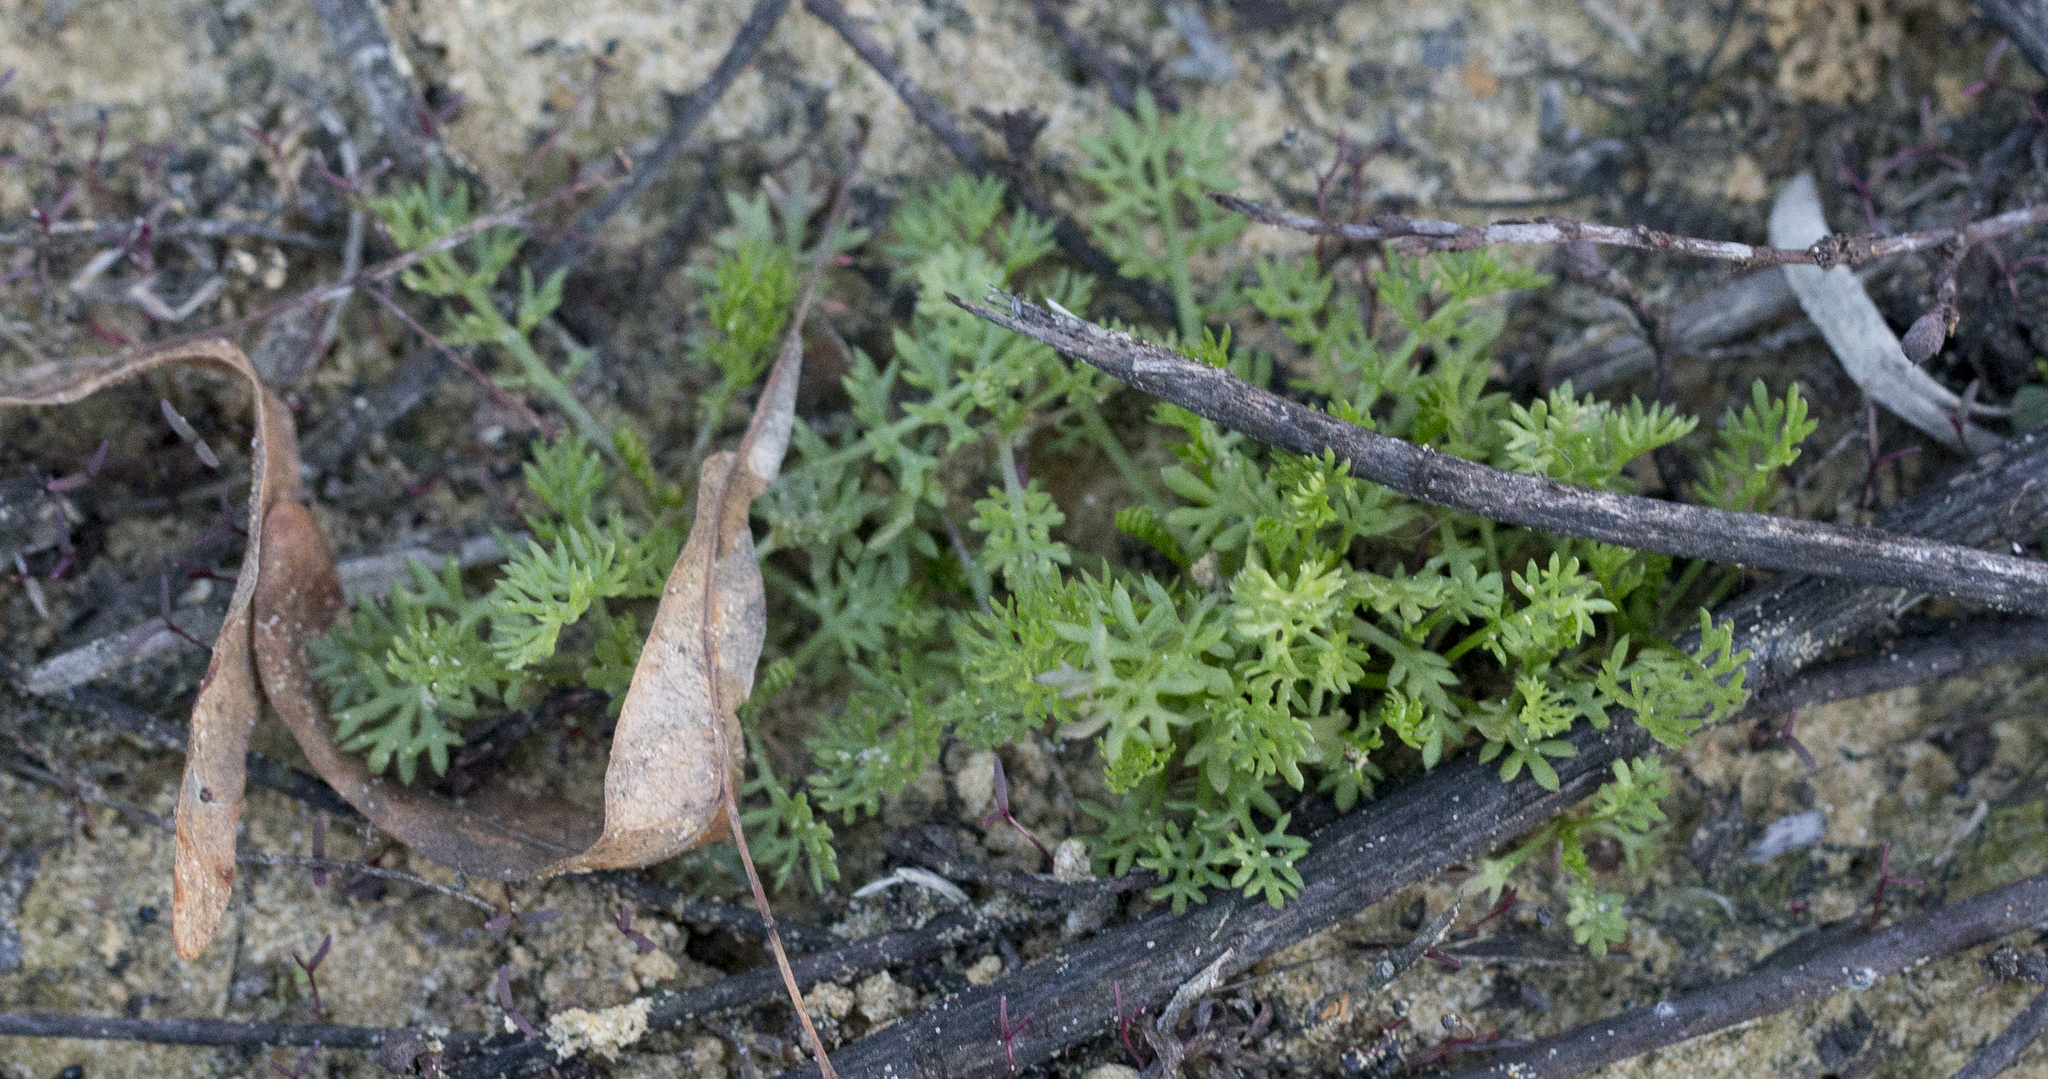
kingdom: Plantae
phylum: Tracheophyta
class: Magnoliopsida
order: Asterales
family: Asteraceae
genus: Tripleurospermum
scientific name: Tripleurospermum inodorum
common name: Scentless mayweed
